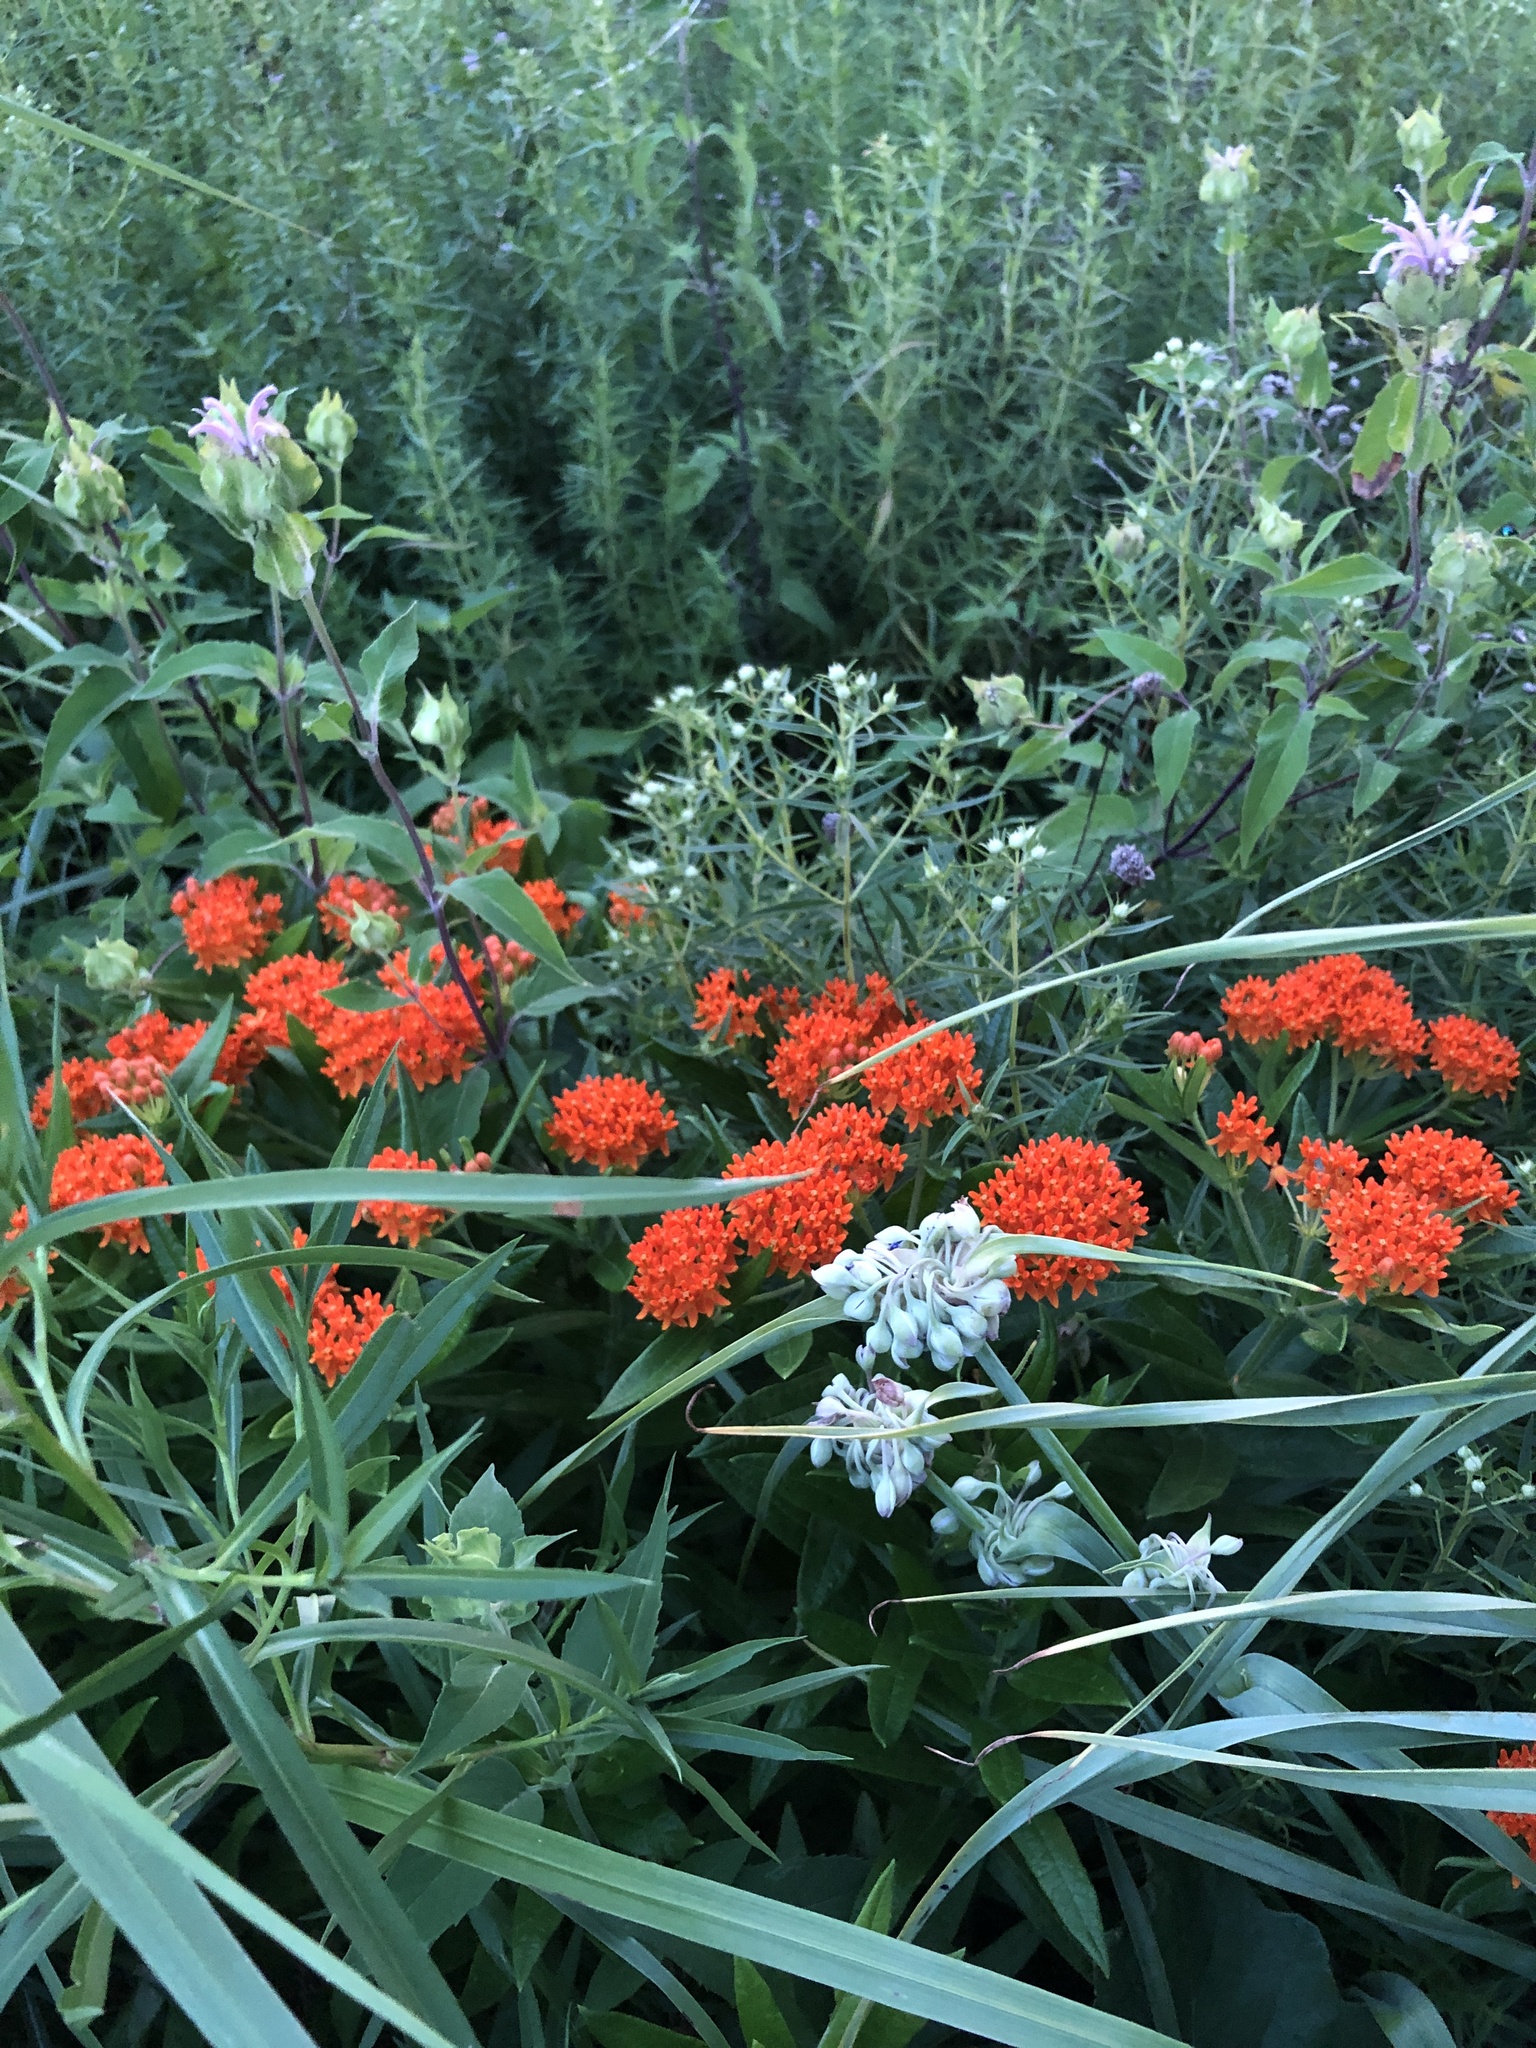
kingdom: Plantae
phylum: Tracheophyta
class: Magnoliopsida
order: Gentianales
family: Apocynaceae
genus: Asclepias
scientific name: Asclepias tuberosa
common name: Butterfly milkweed
